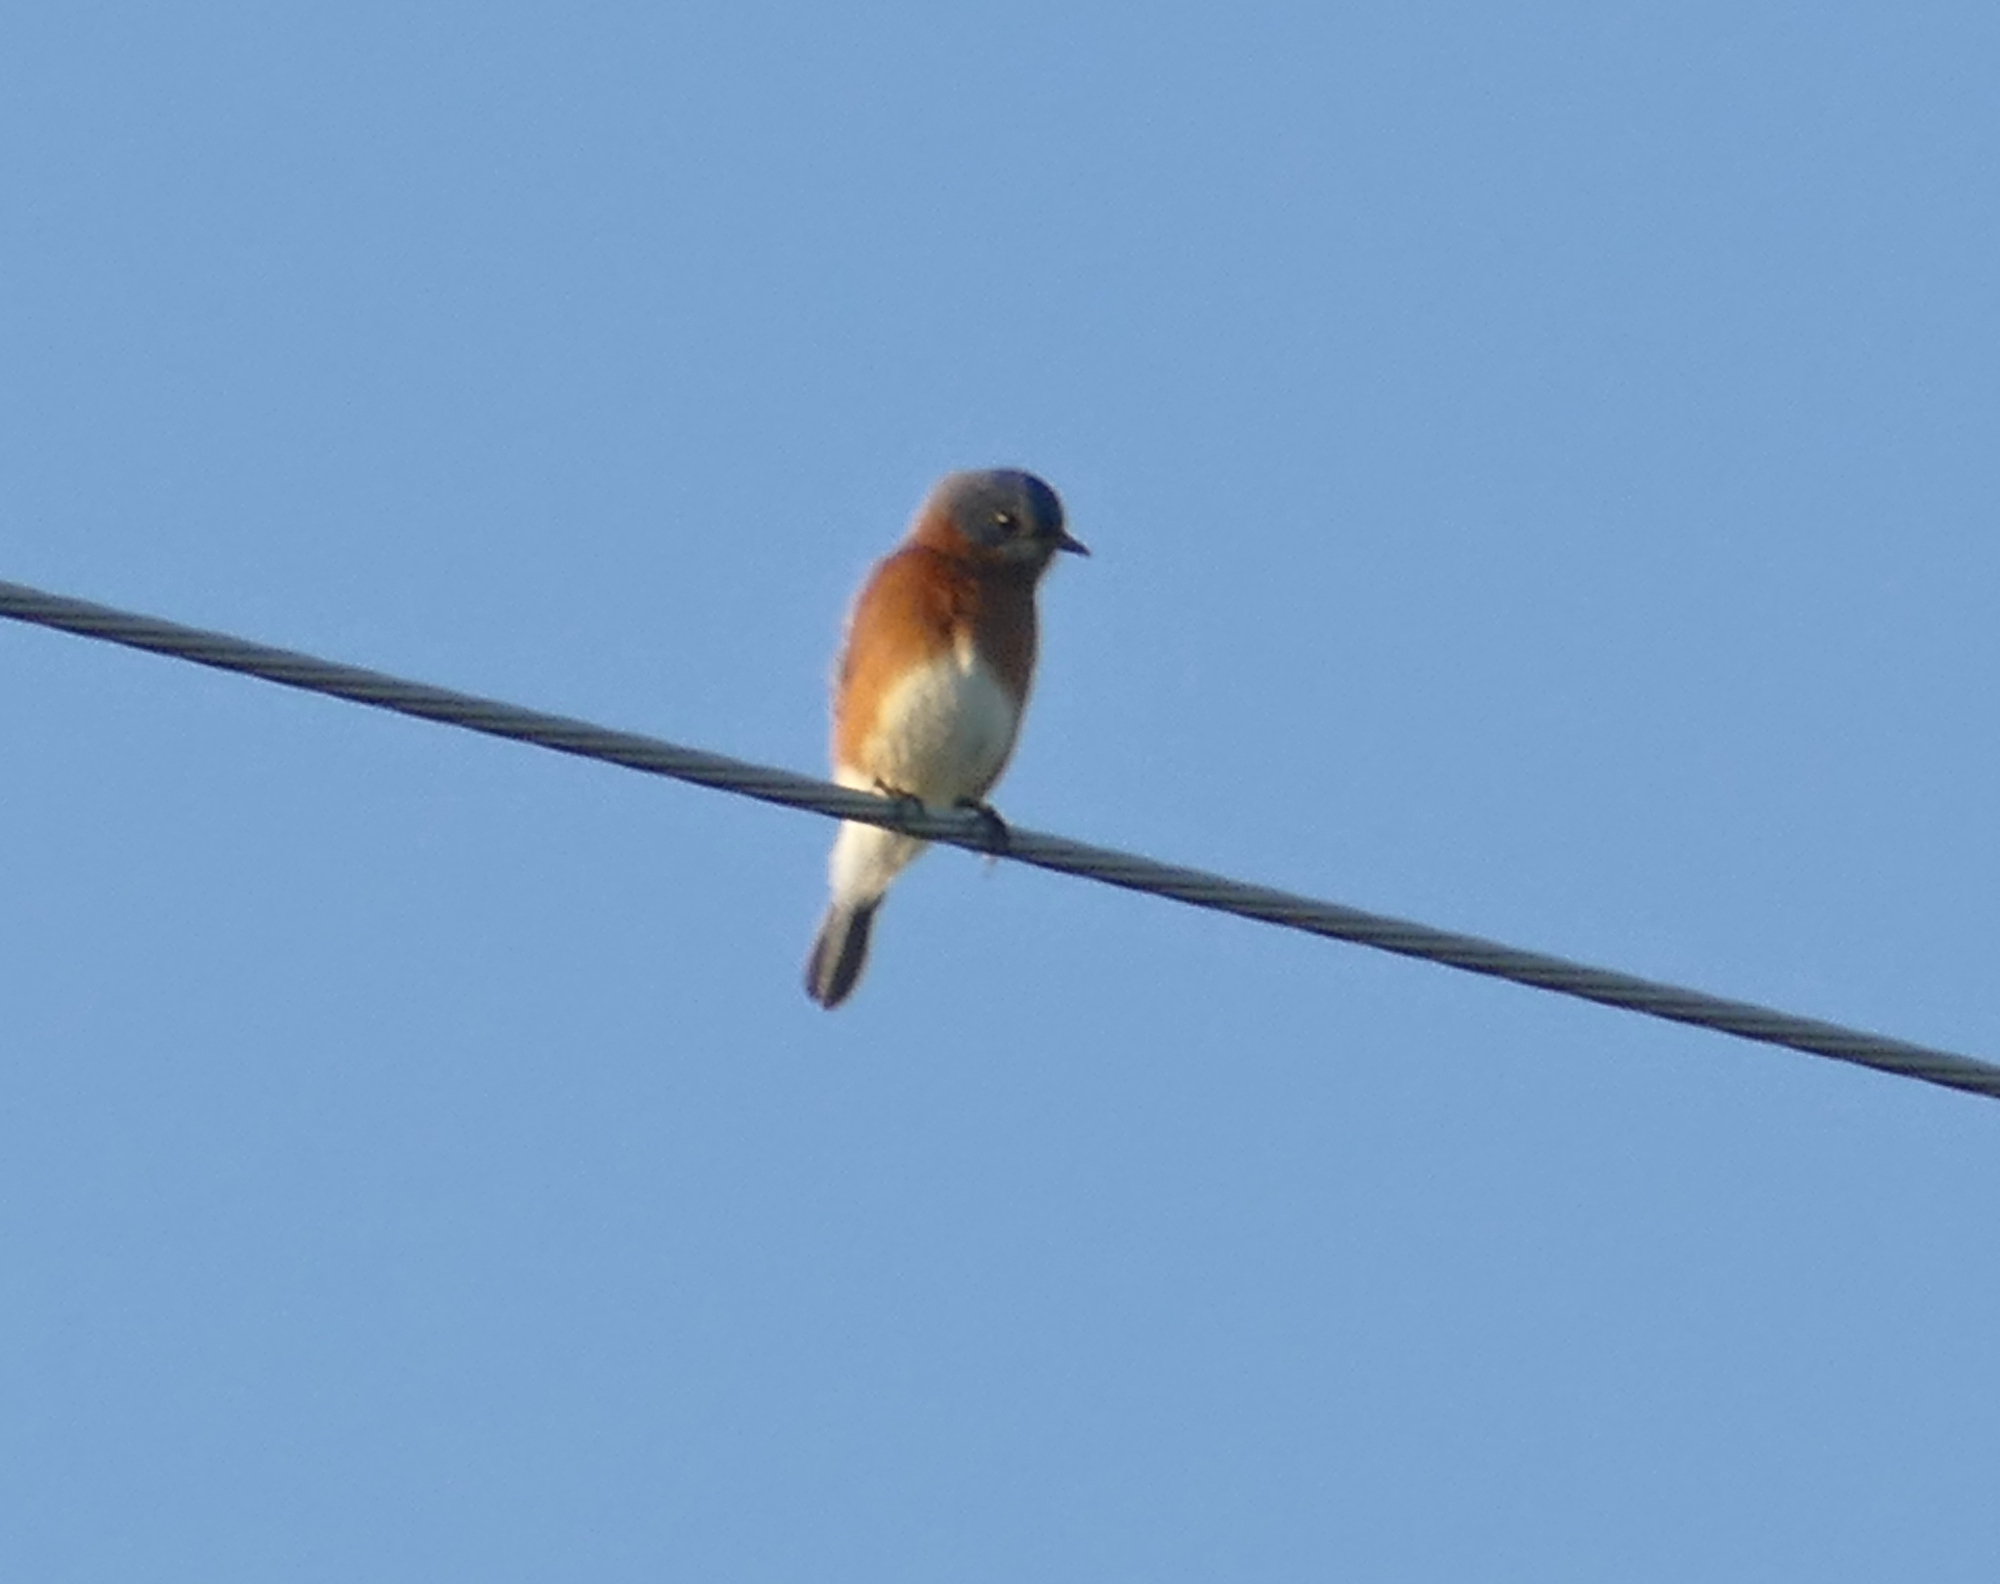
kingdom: Animalia
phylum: Chordata
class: Aves
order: Passeriformes
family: Turdidae
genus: Sialia
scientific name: Sialia sialis
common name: Eastern bluebird
